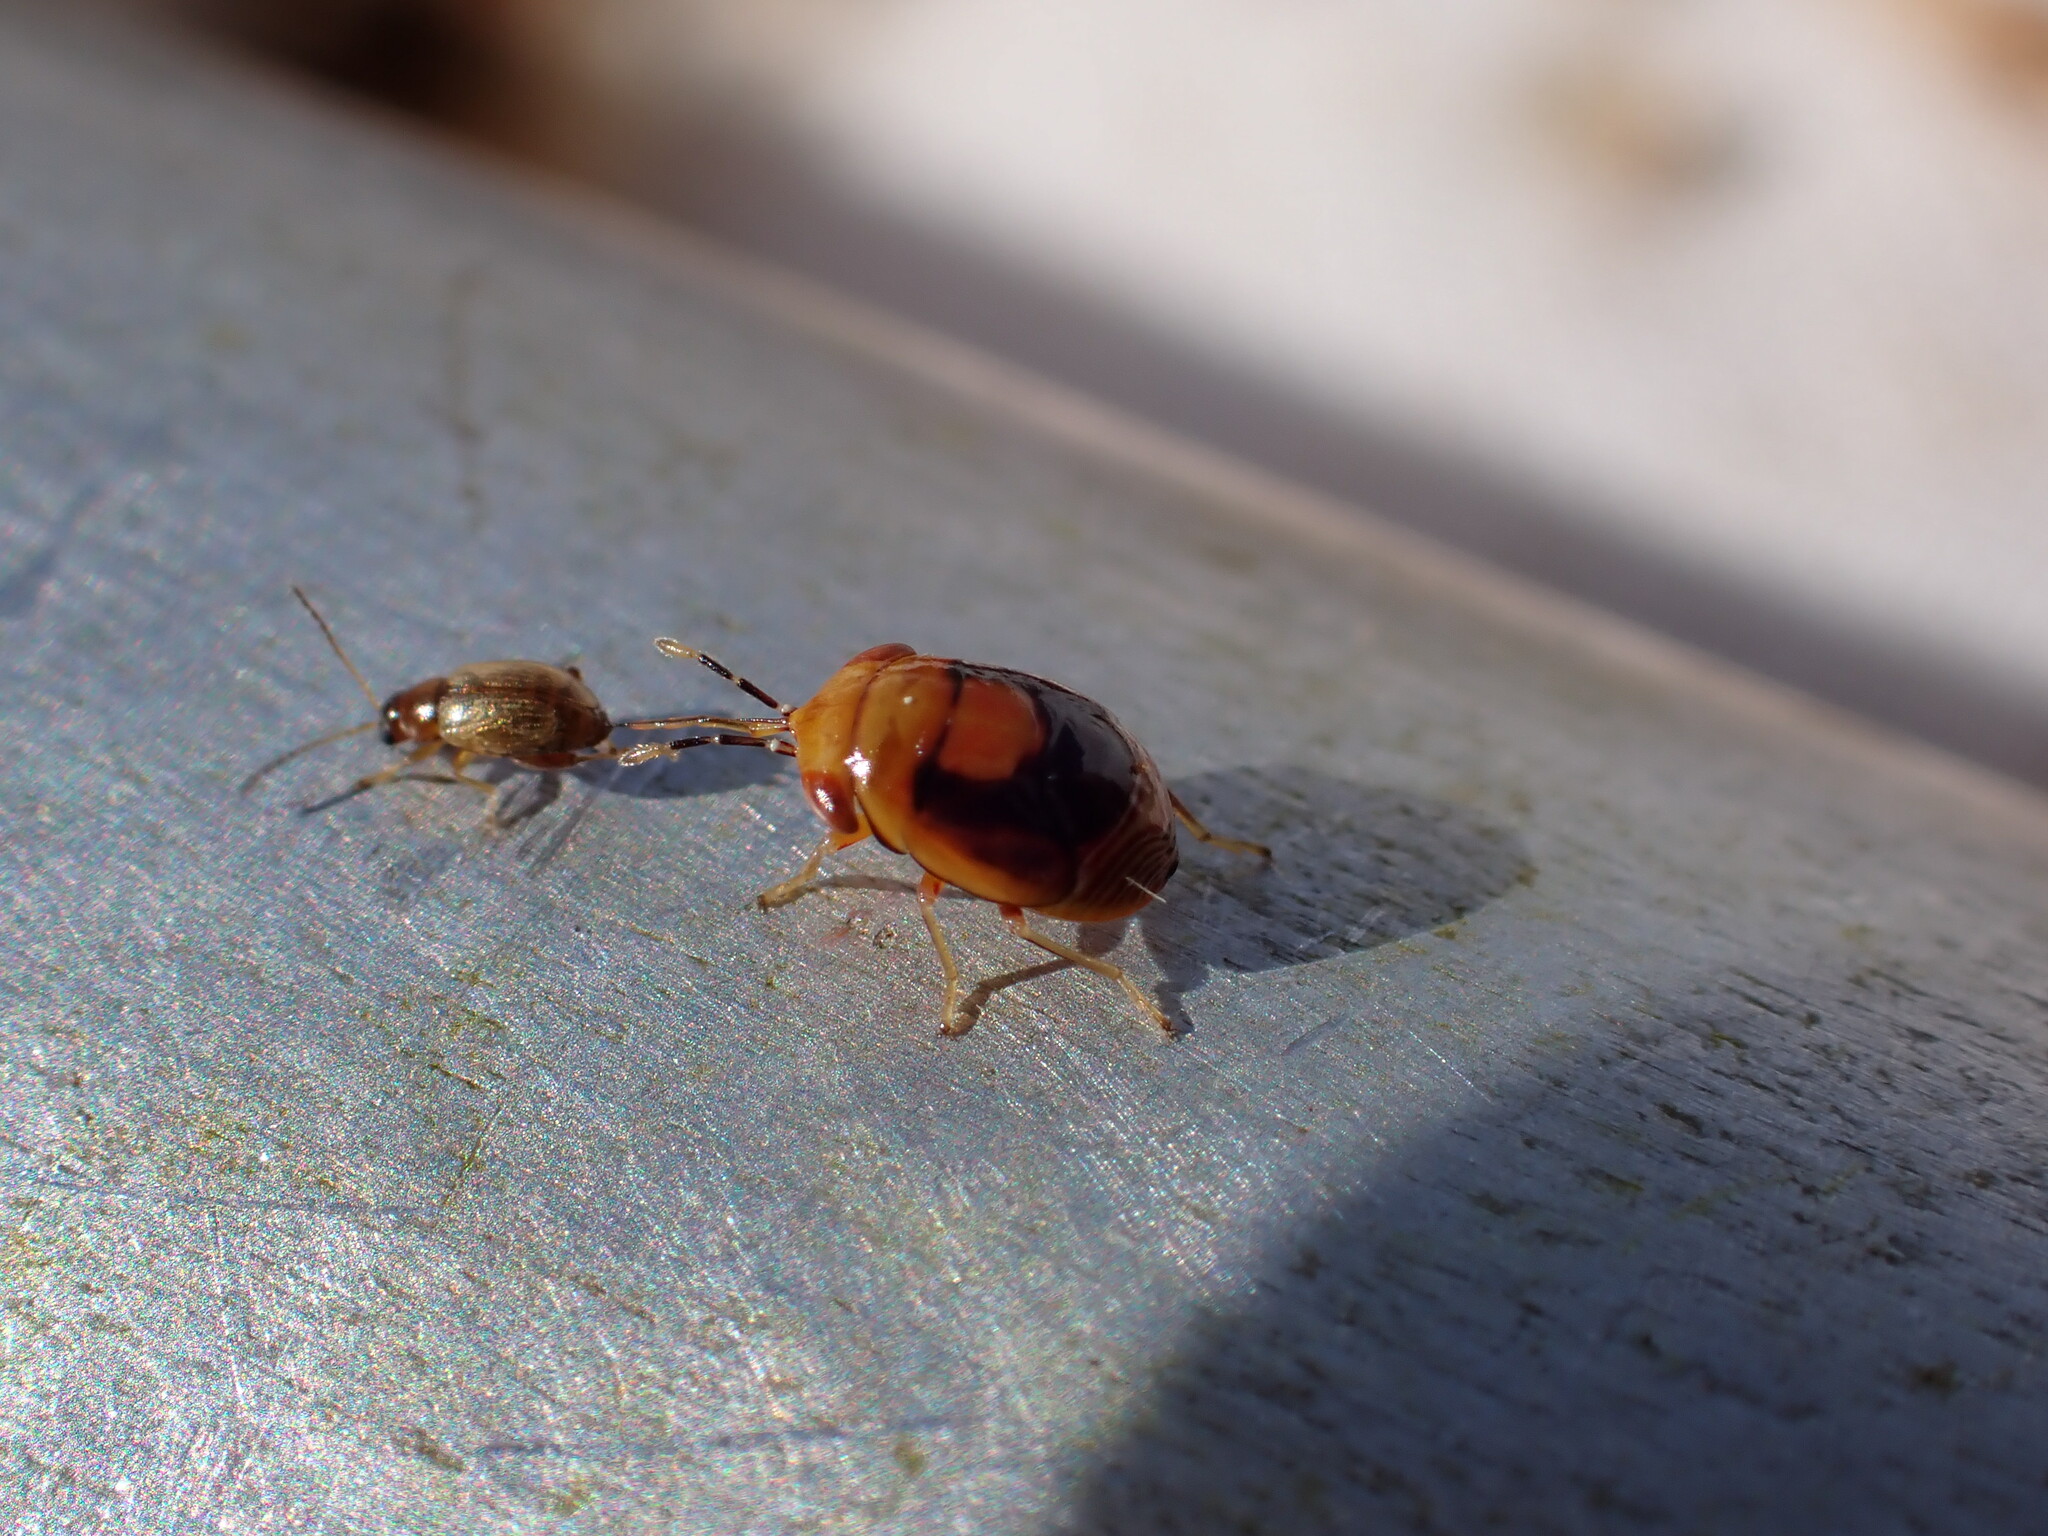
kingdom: Animalia
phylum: Arthropoda
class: Insecta
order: Hemiptera
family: Geocoridae
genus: Geocoris
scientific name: Geocoris erythrocephala
